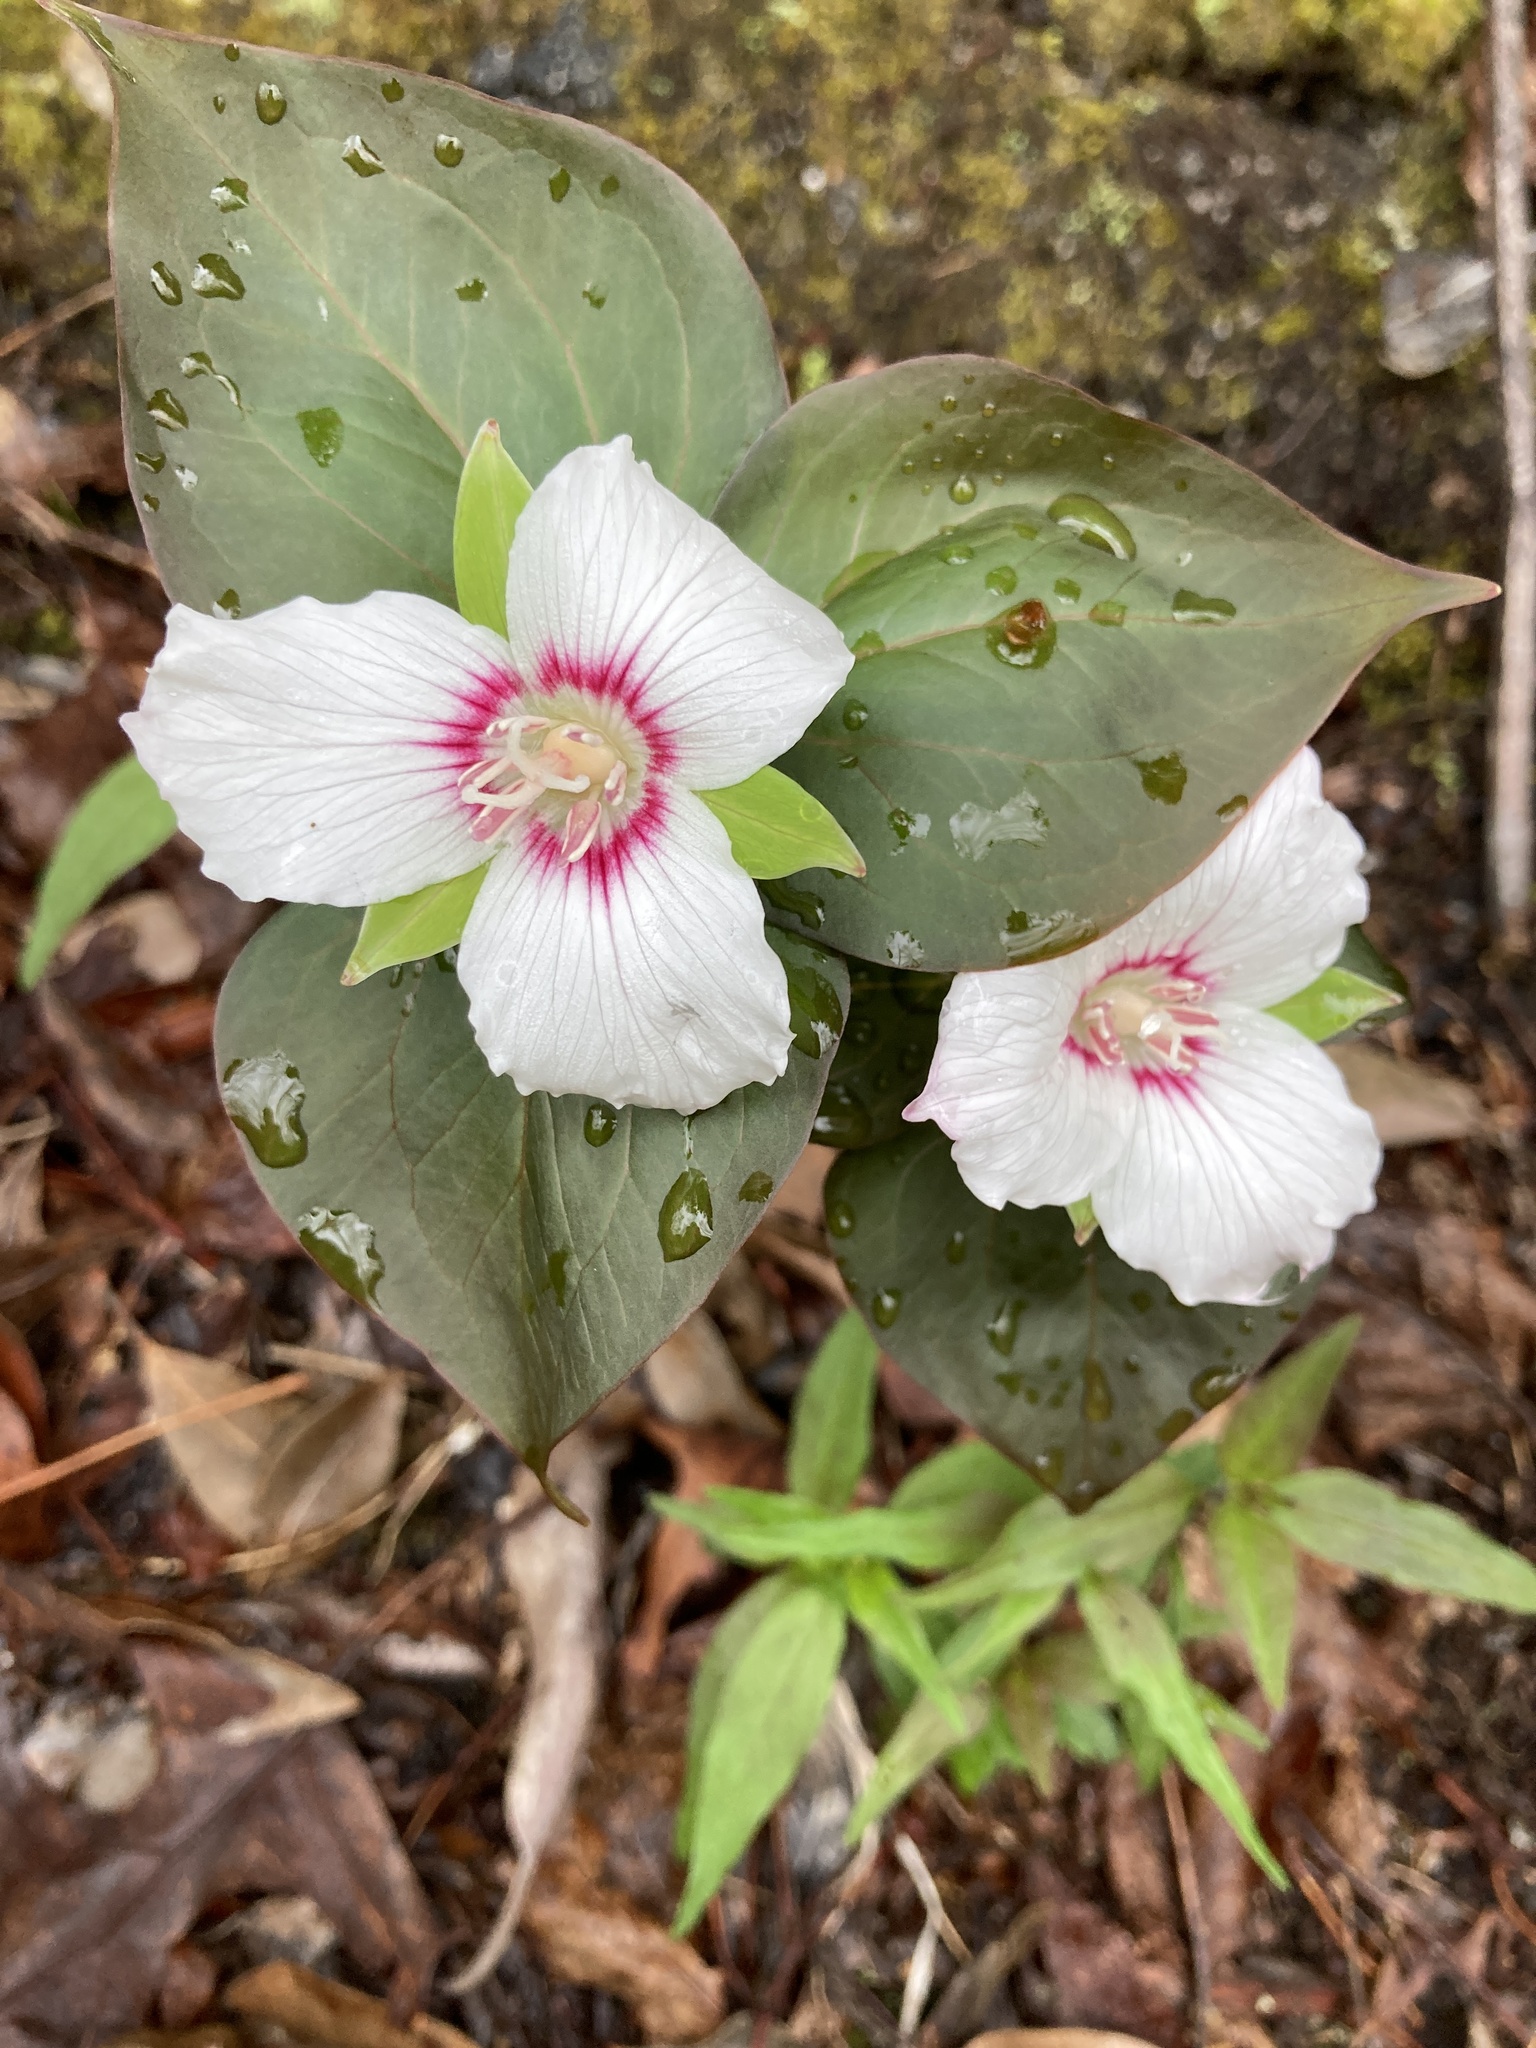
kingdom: Plantae
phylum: Tracheophyta
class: Liliopsida
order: Liliales
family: Melanthiaceae
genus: Trillium
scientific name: Trillium undulatum
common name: Paint trillium
